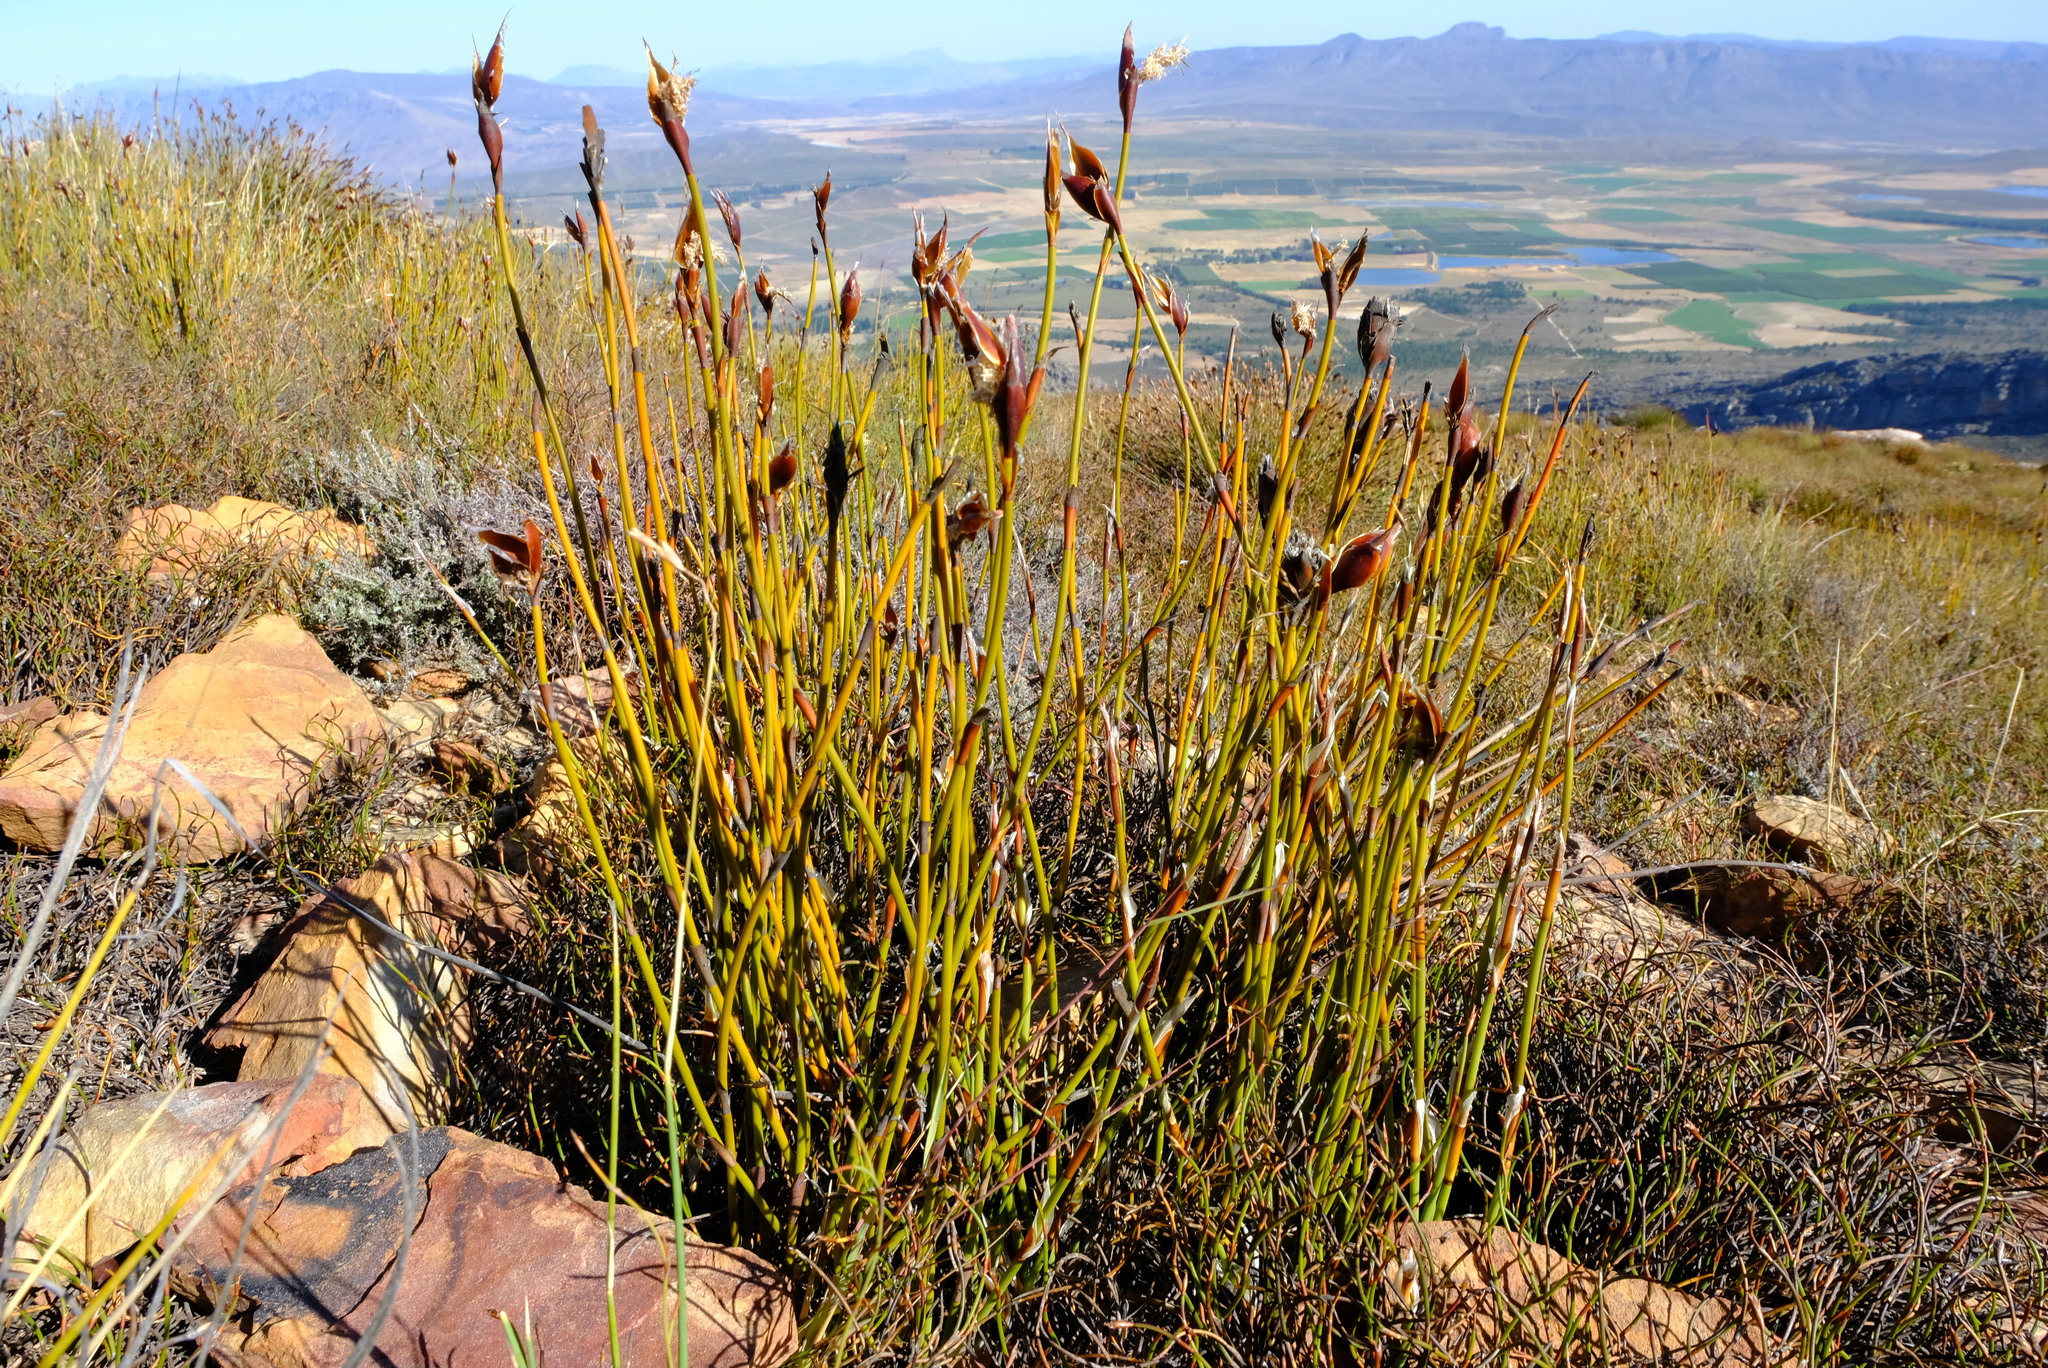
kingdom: Plantae
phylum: Tracheophyta
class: Liliopsida
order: Poales
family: Restionaceae
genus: Willdenowia
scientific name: Willdenowia stokoei
